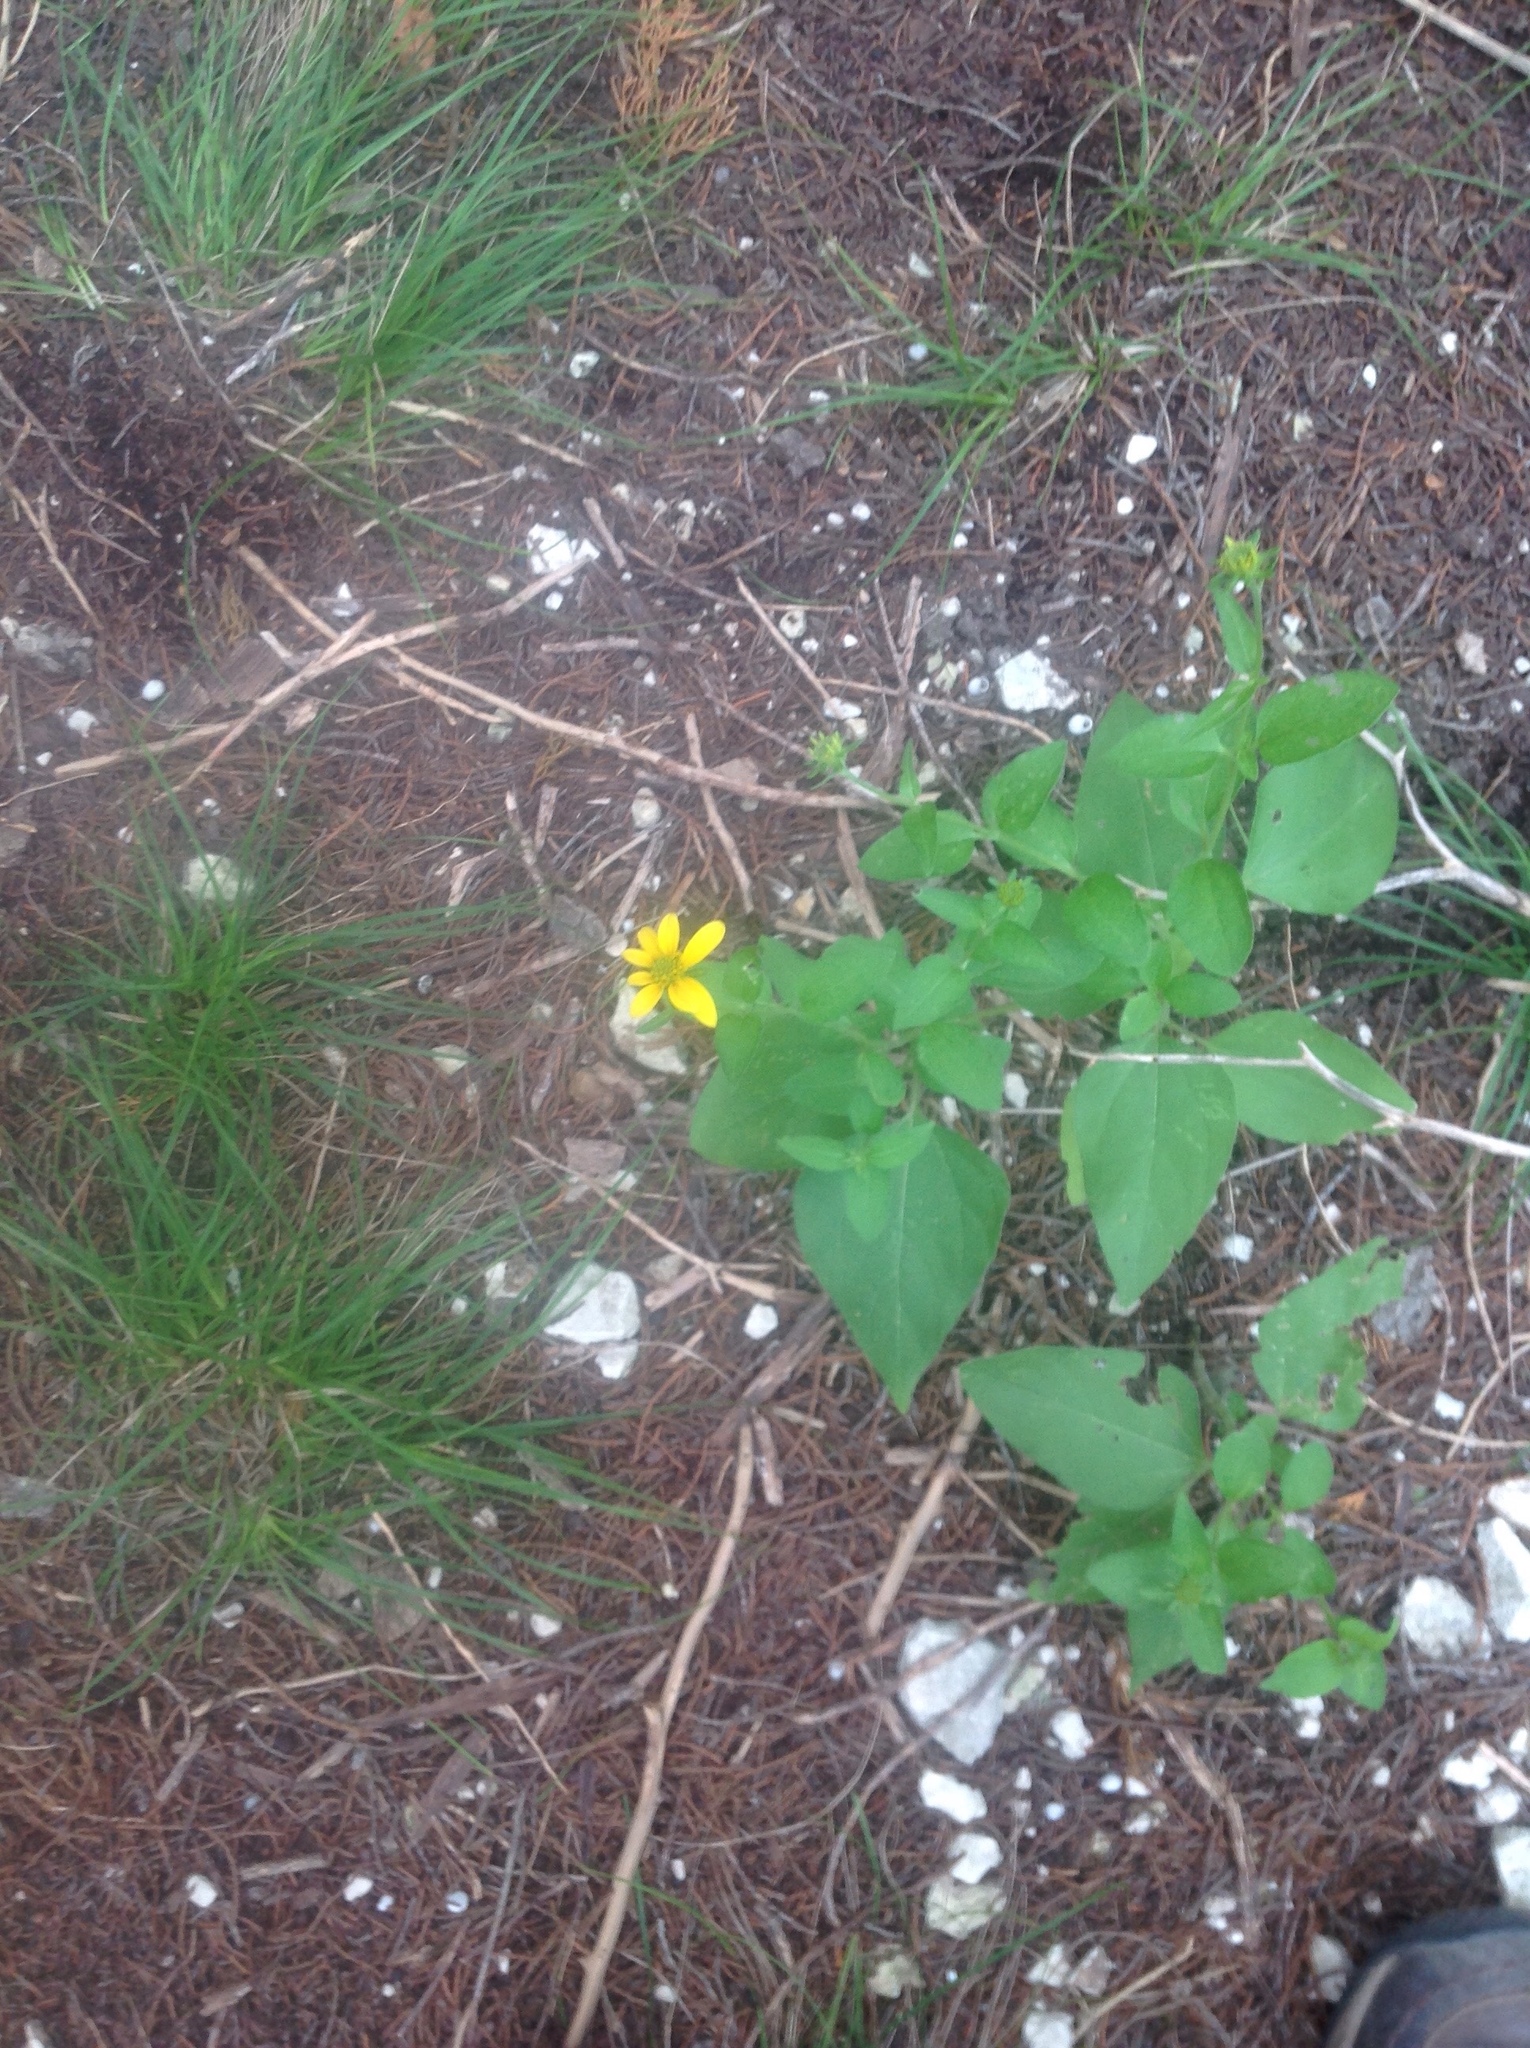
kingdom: Plantae
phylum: Tracheophyta
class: Magnoliopsida
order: Asterales
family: Asteraceae
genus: Viguiera
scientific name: Viguiera dentata
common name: Toothleaf
